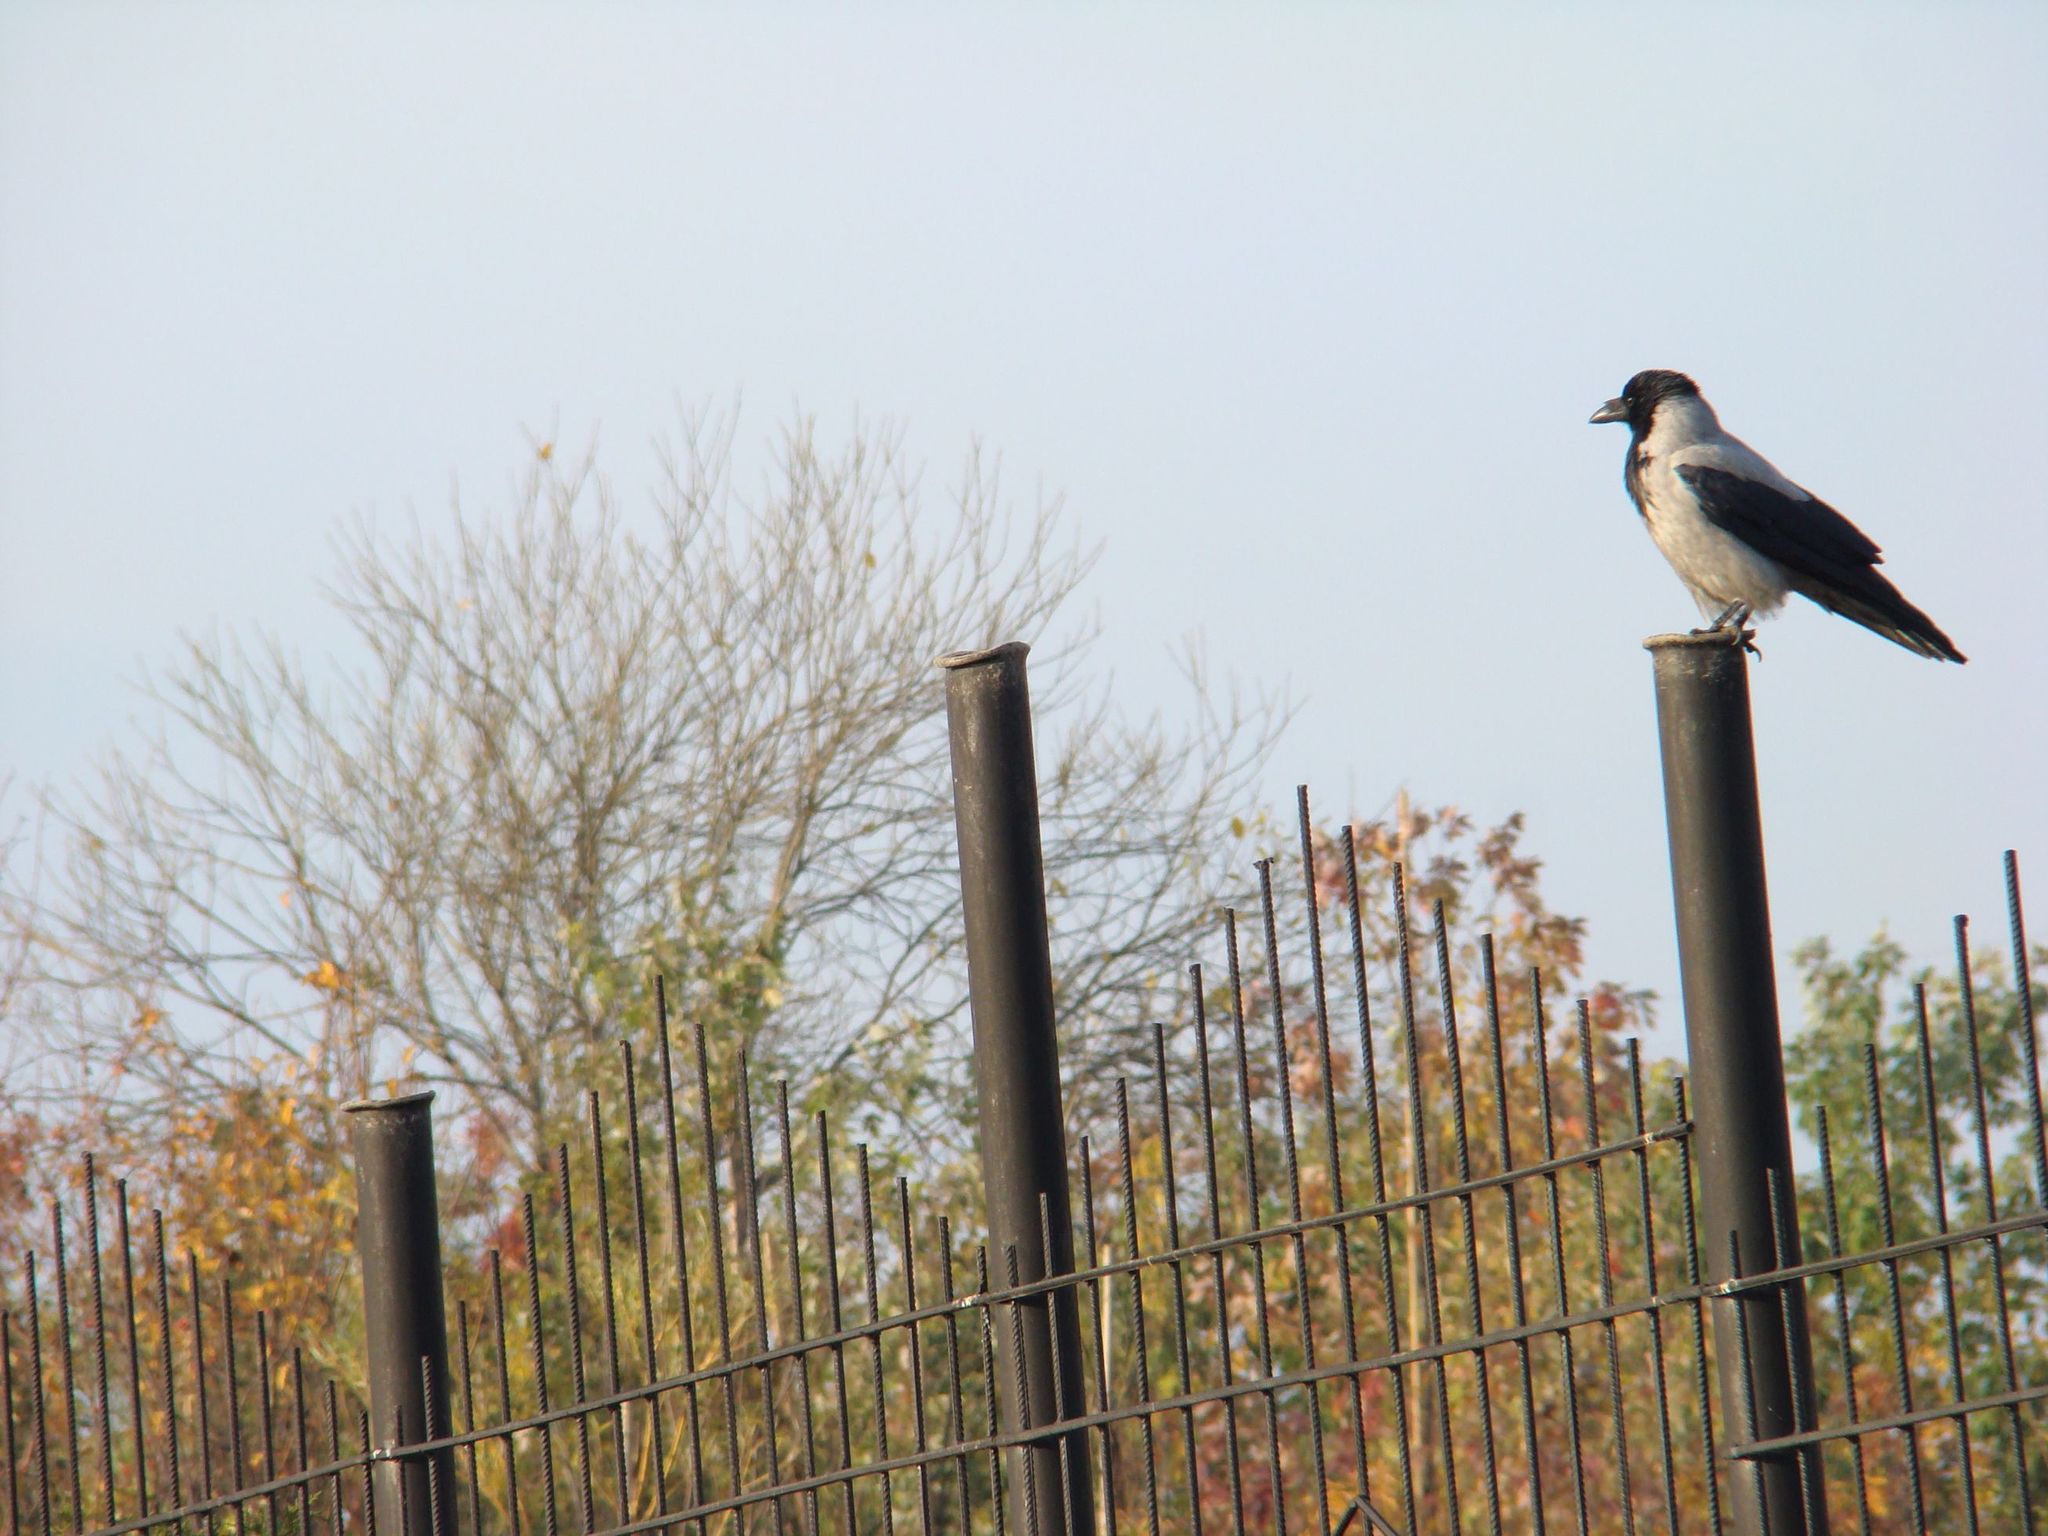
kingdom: Animalia
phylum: Chordata
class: Aves
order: Passeriformes
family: Corvidae
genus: Corvus
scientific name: Corvus cornix
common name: Hooded crow
